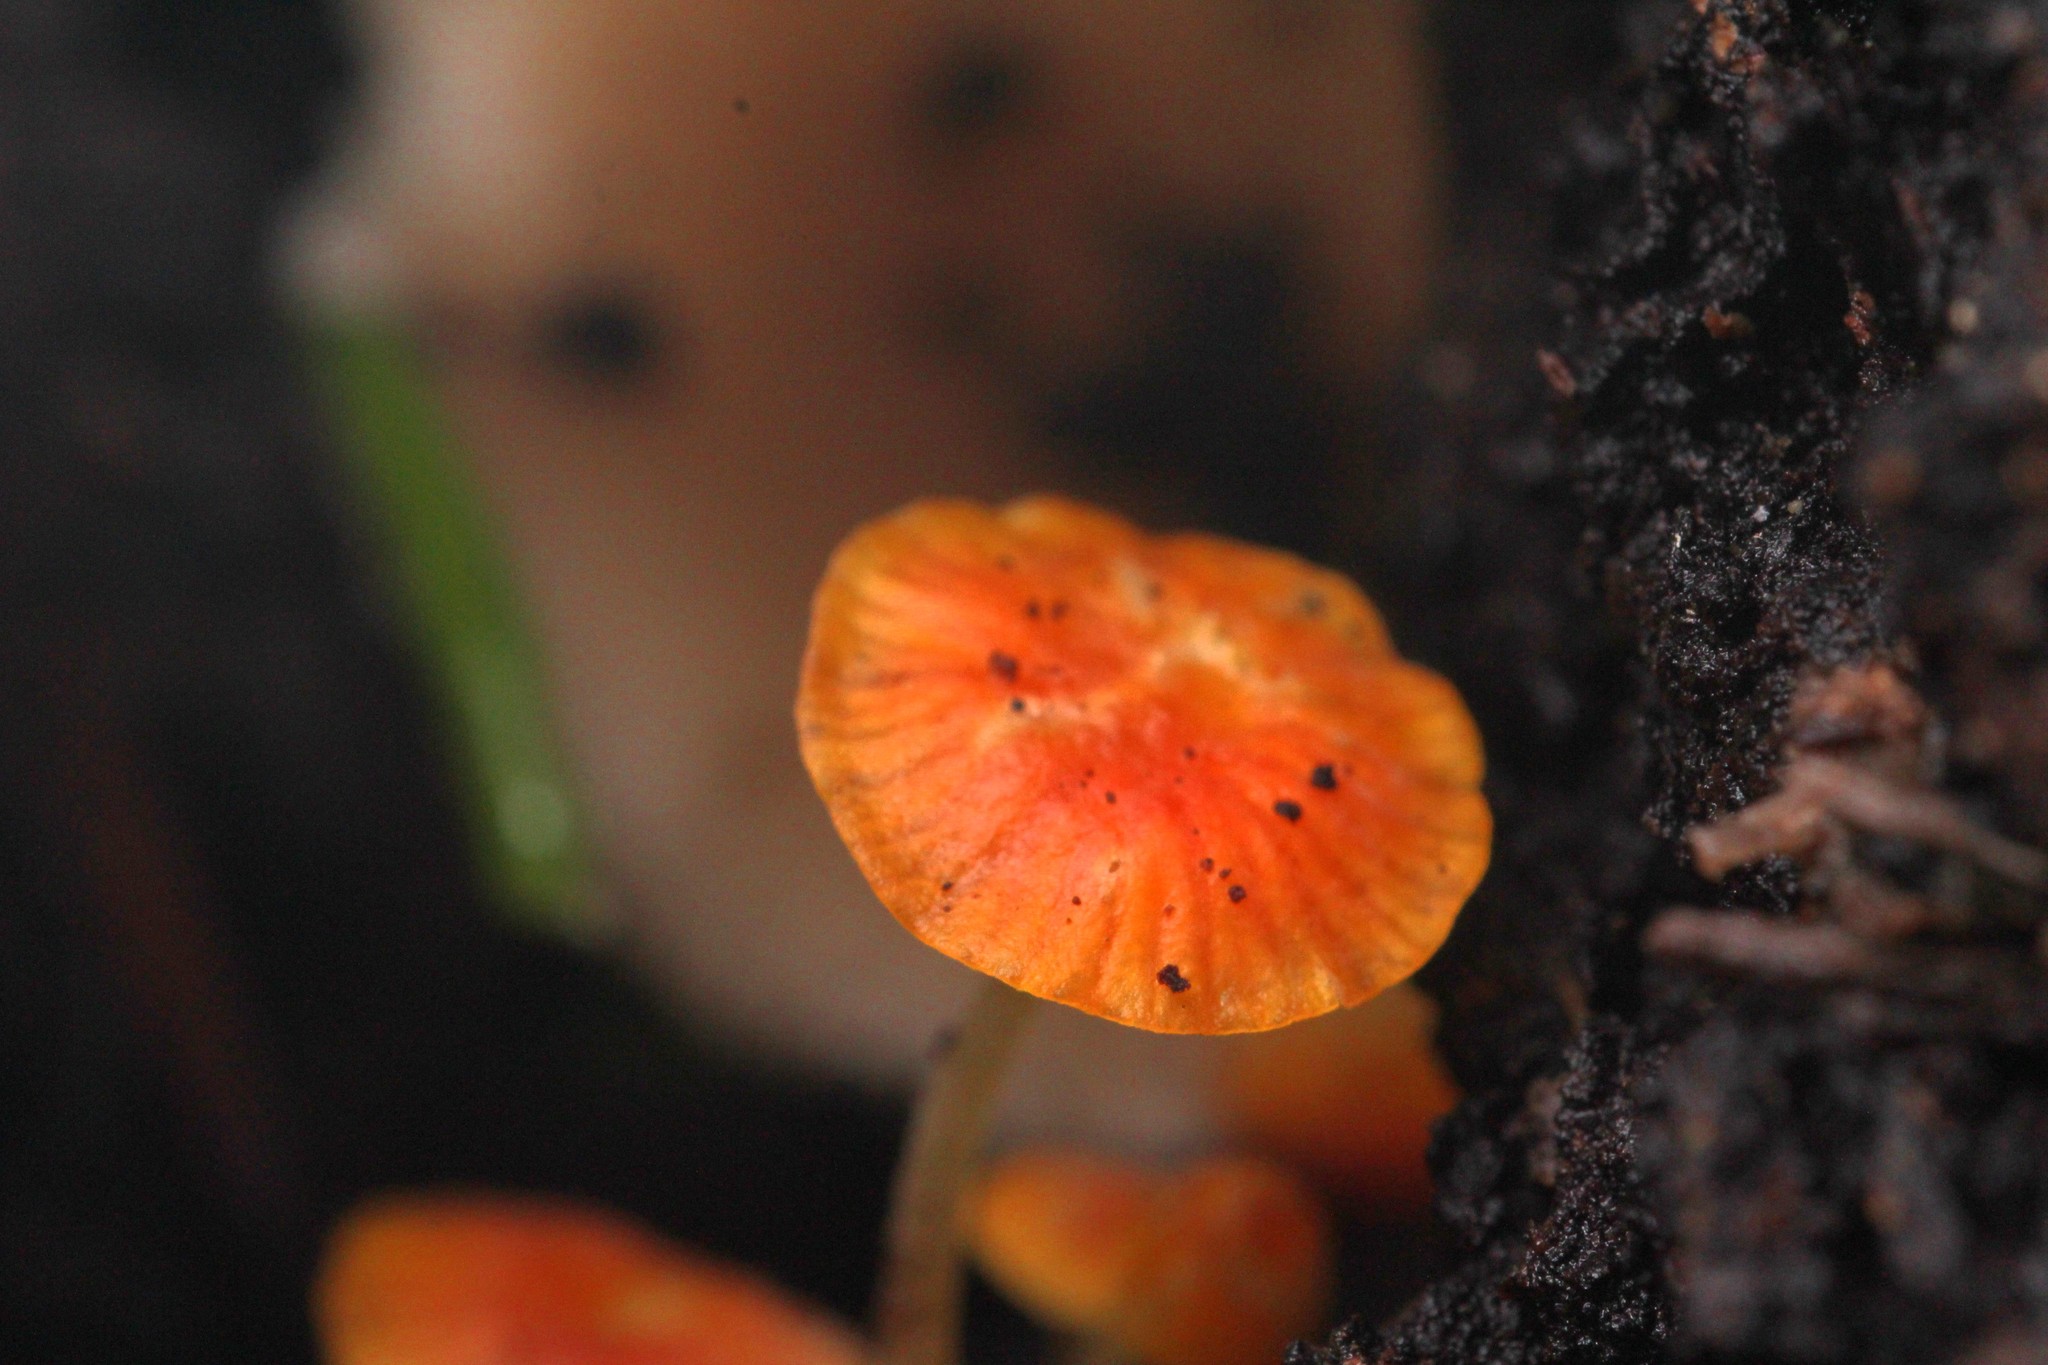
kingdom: Fungi
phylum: Basidiomycota
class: Agaricomycetes
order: Agaricales
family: Mycenaceae
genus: Mycena
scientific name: Mycena acicula
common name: Orange bonnet
